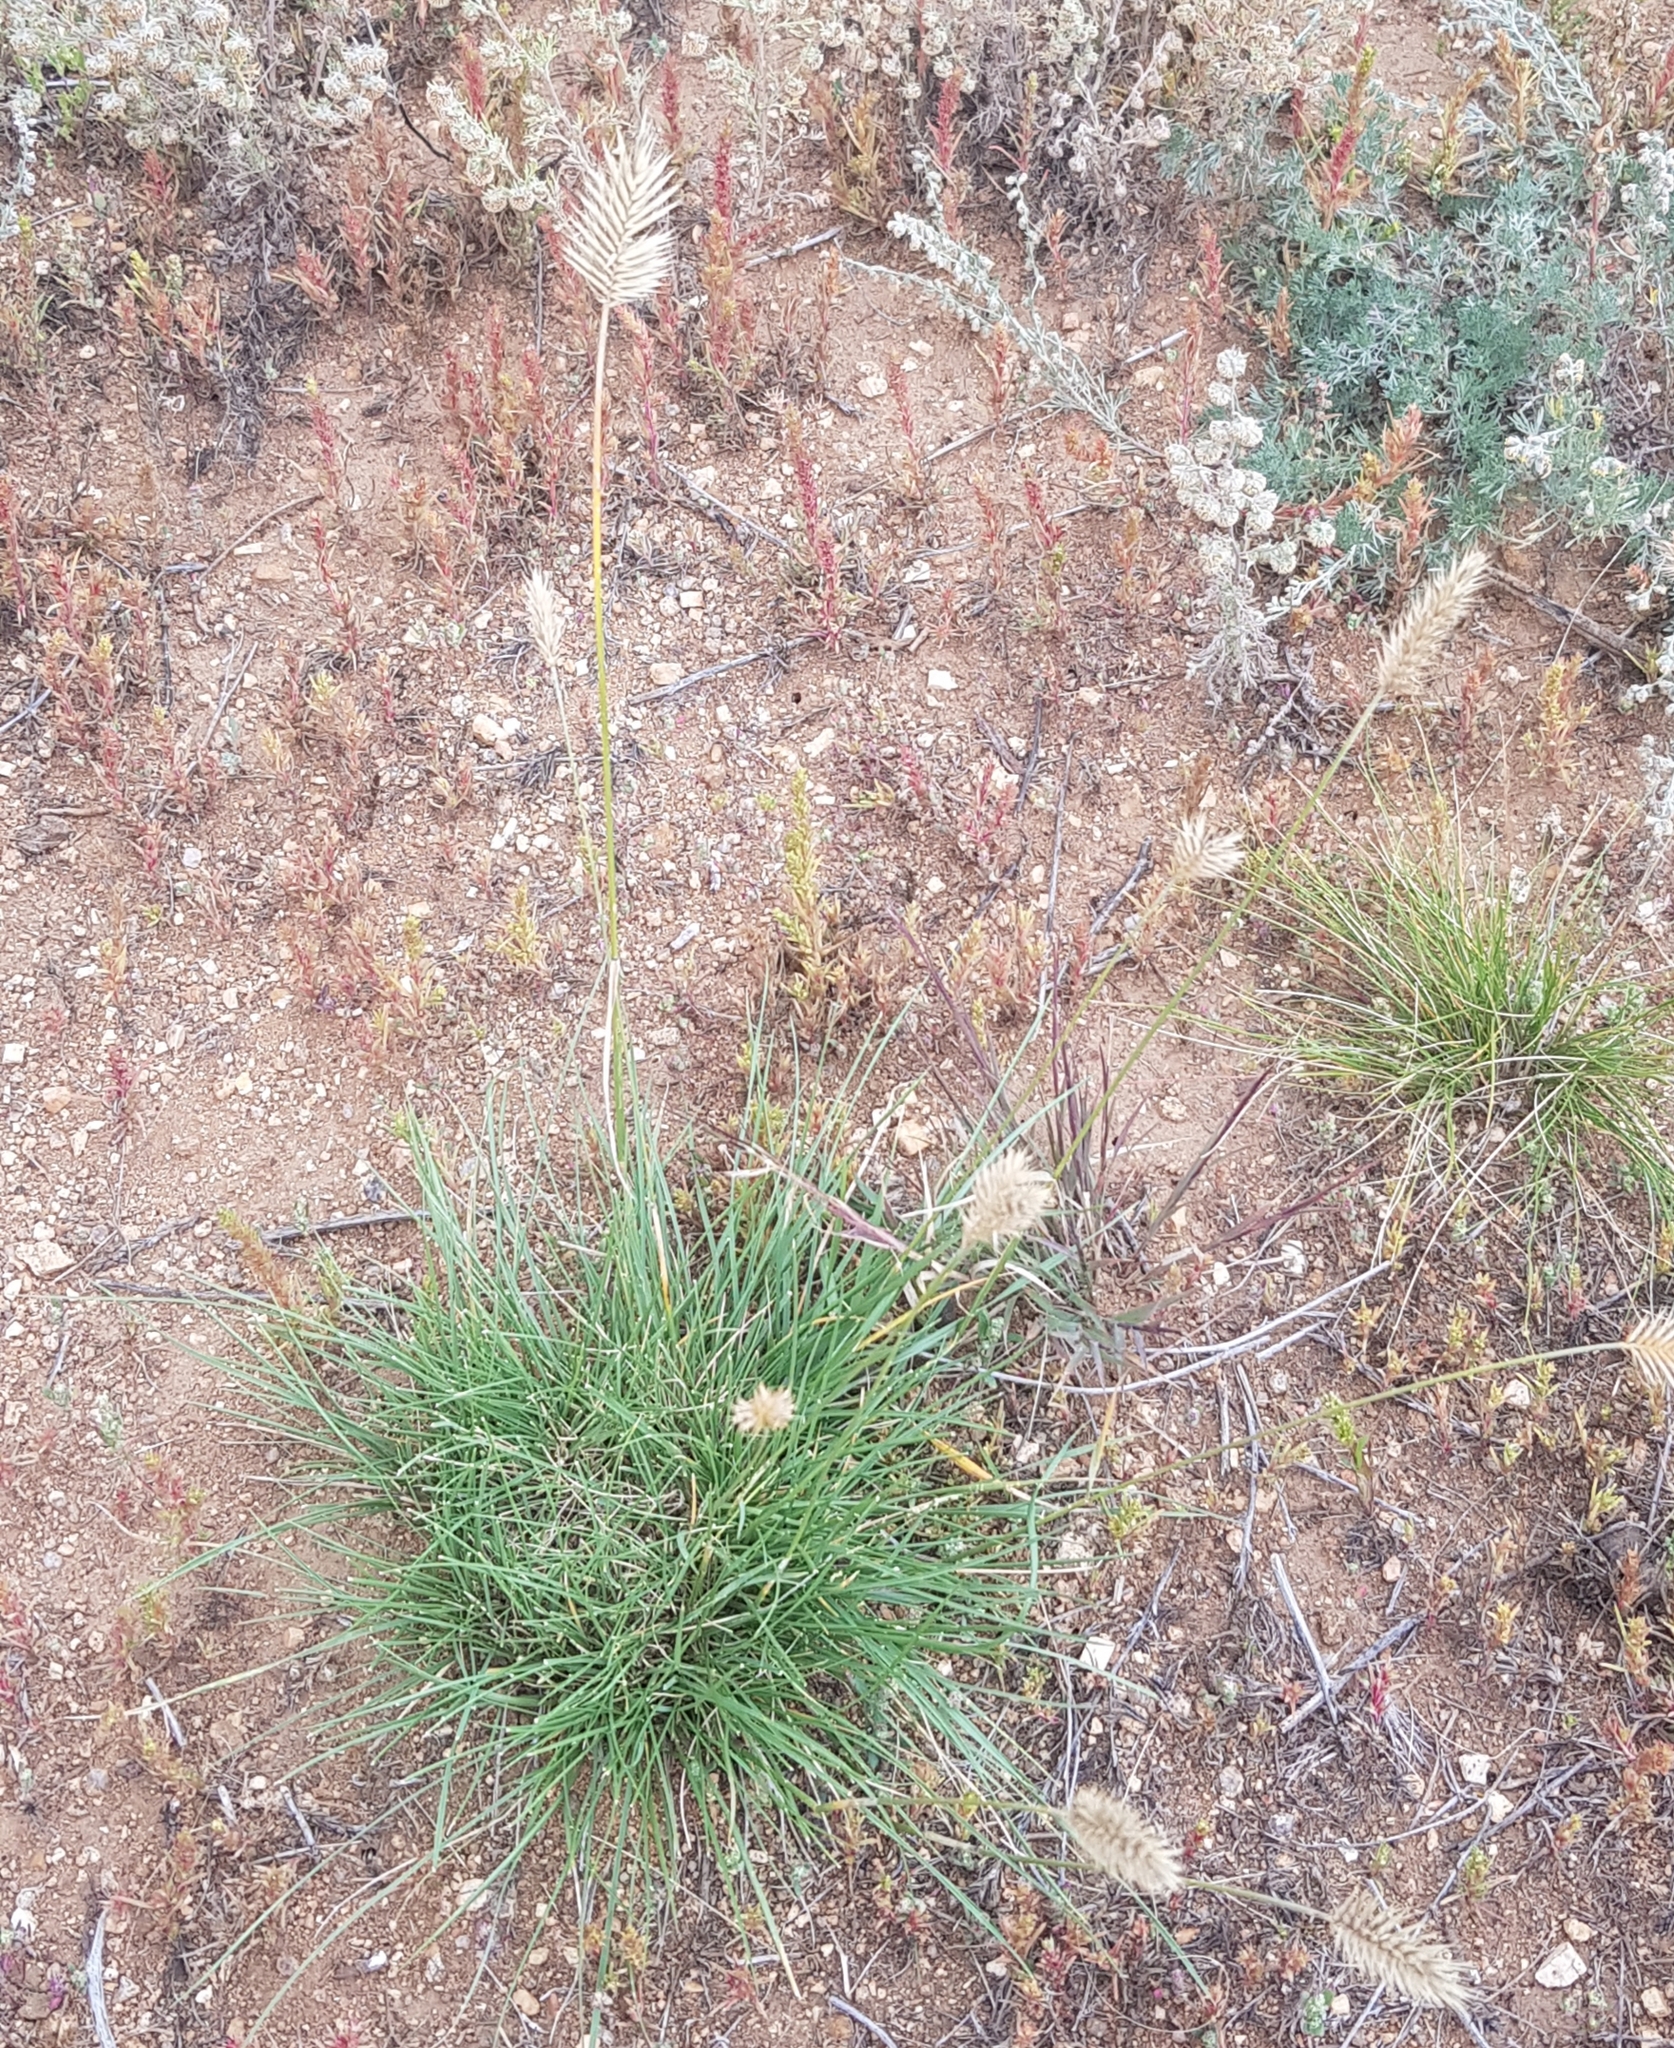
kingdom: Plantae
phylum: Tracheophyta
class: Liliopsida
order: Poales
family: Poaceae
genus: Agropyron
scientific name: Agropyron cristatum
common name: Crested wheatgrass
